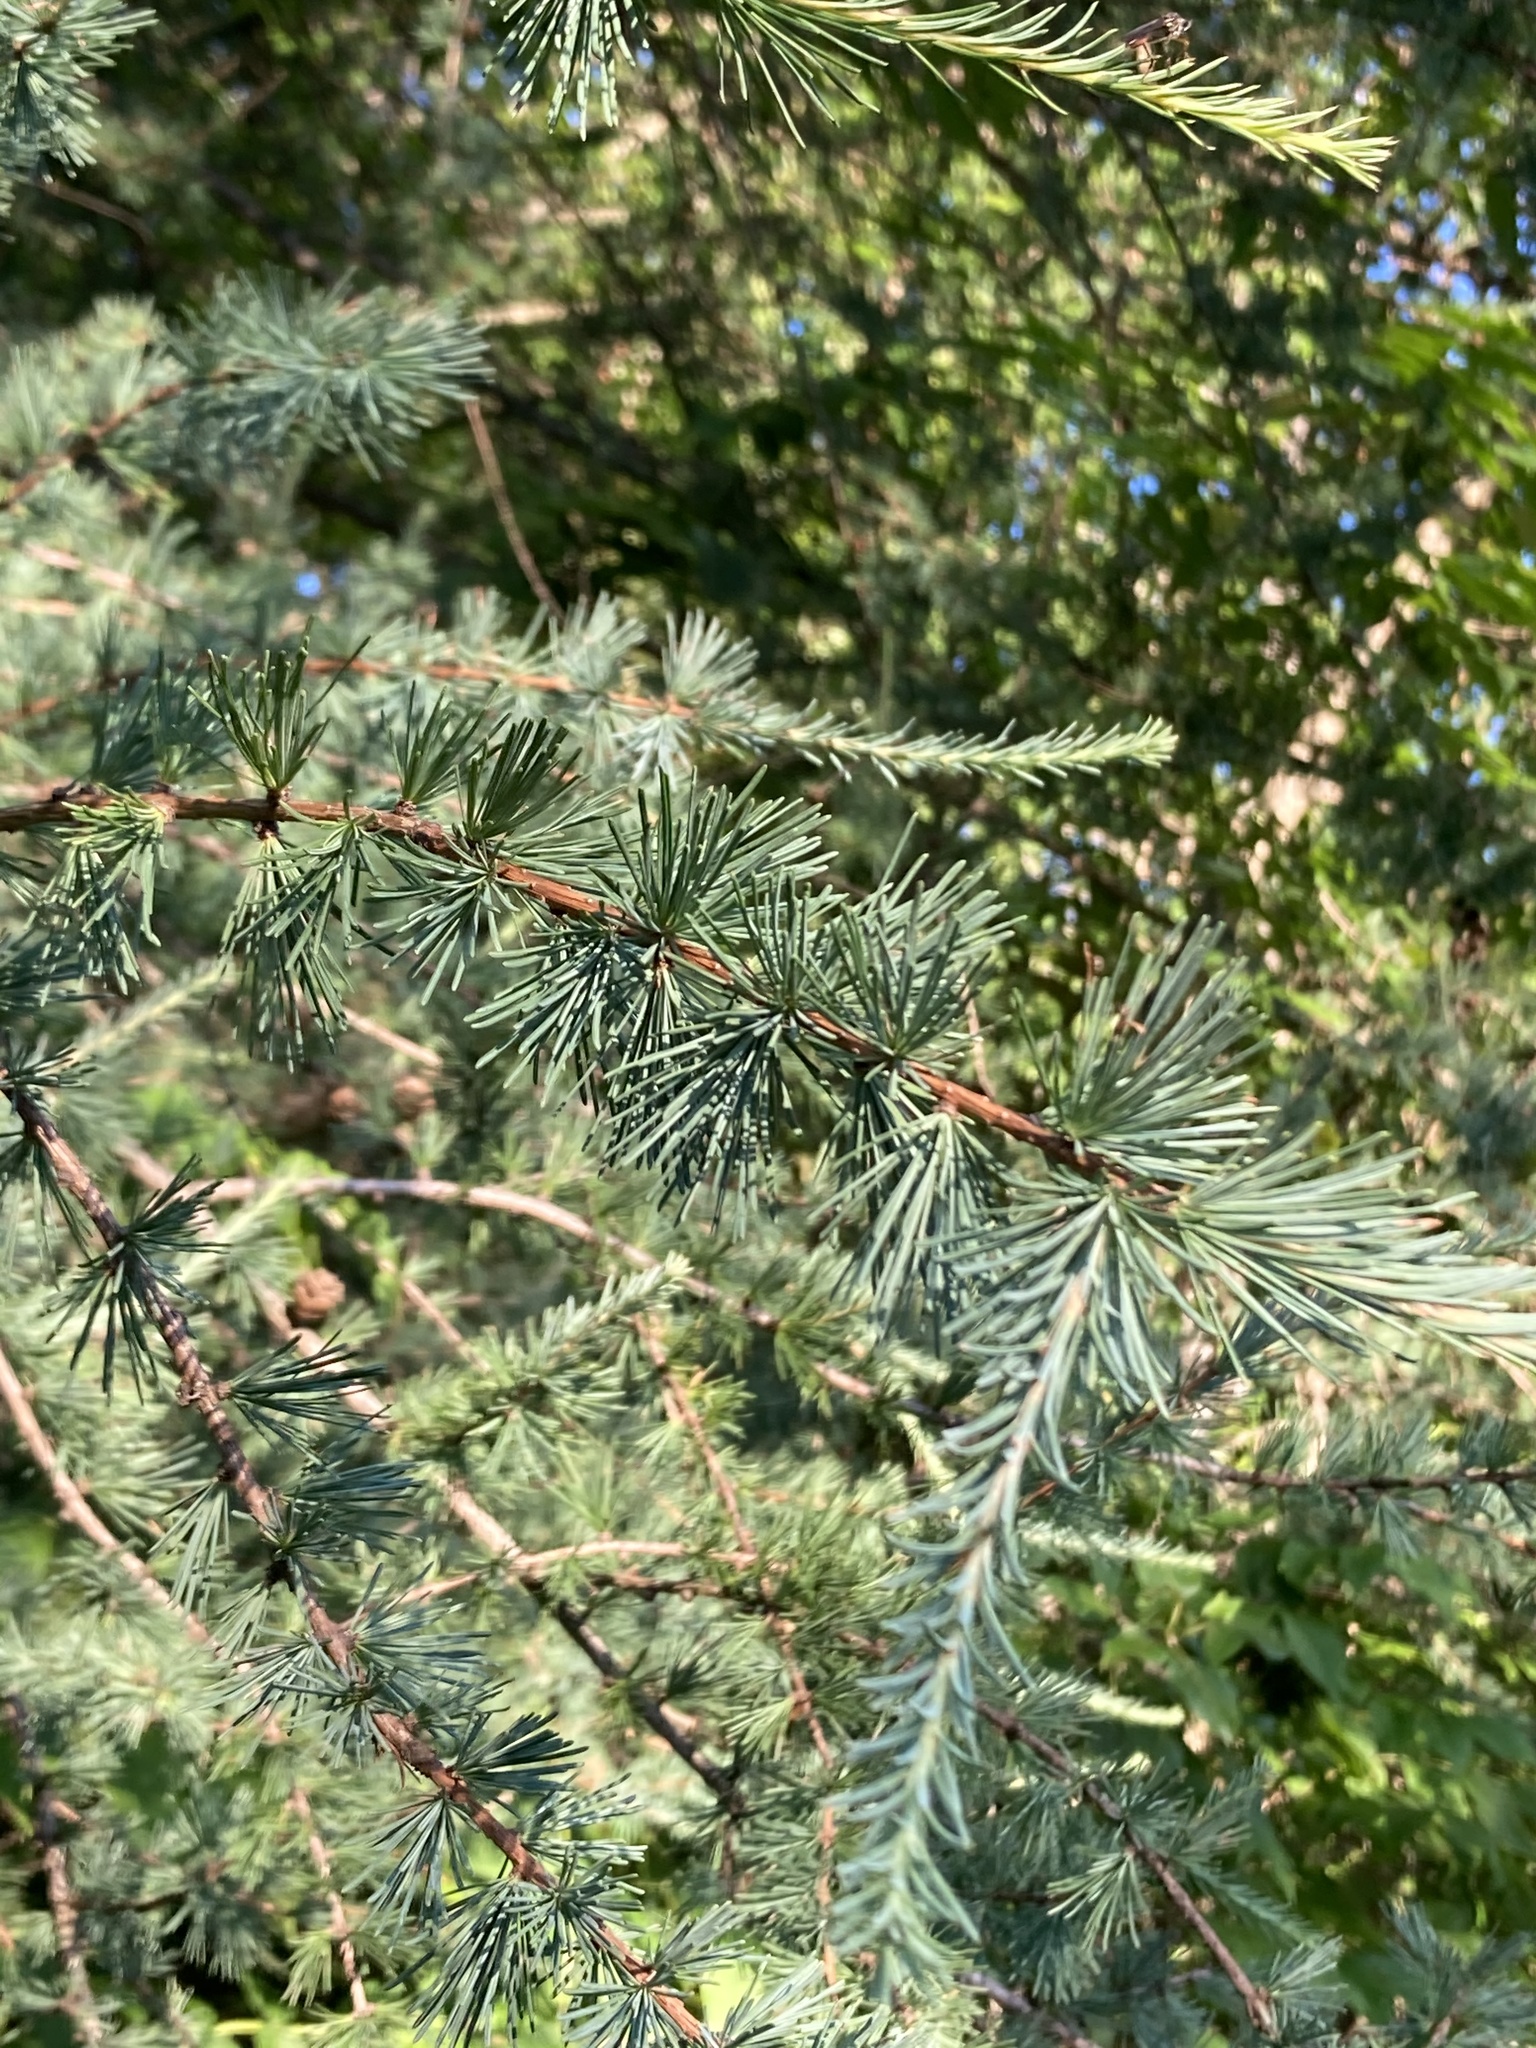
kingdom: Plantae
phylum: Tracheophyta
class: Pinopsida
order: Pinales
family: Pinaceae
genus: Larix
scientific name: Larix laricina
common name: American larch
